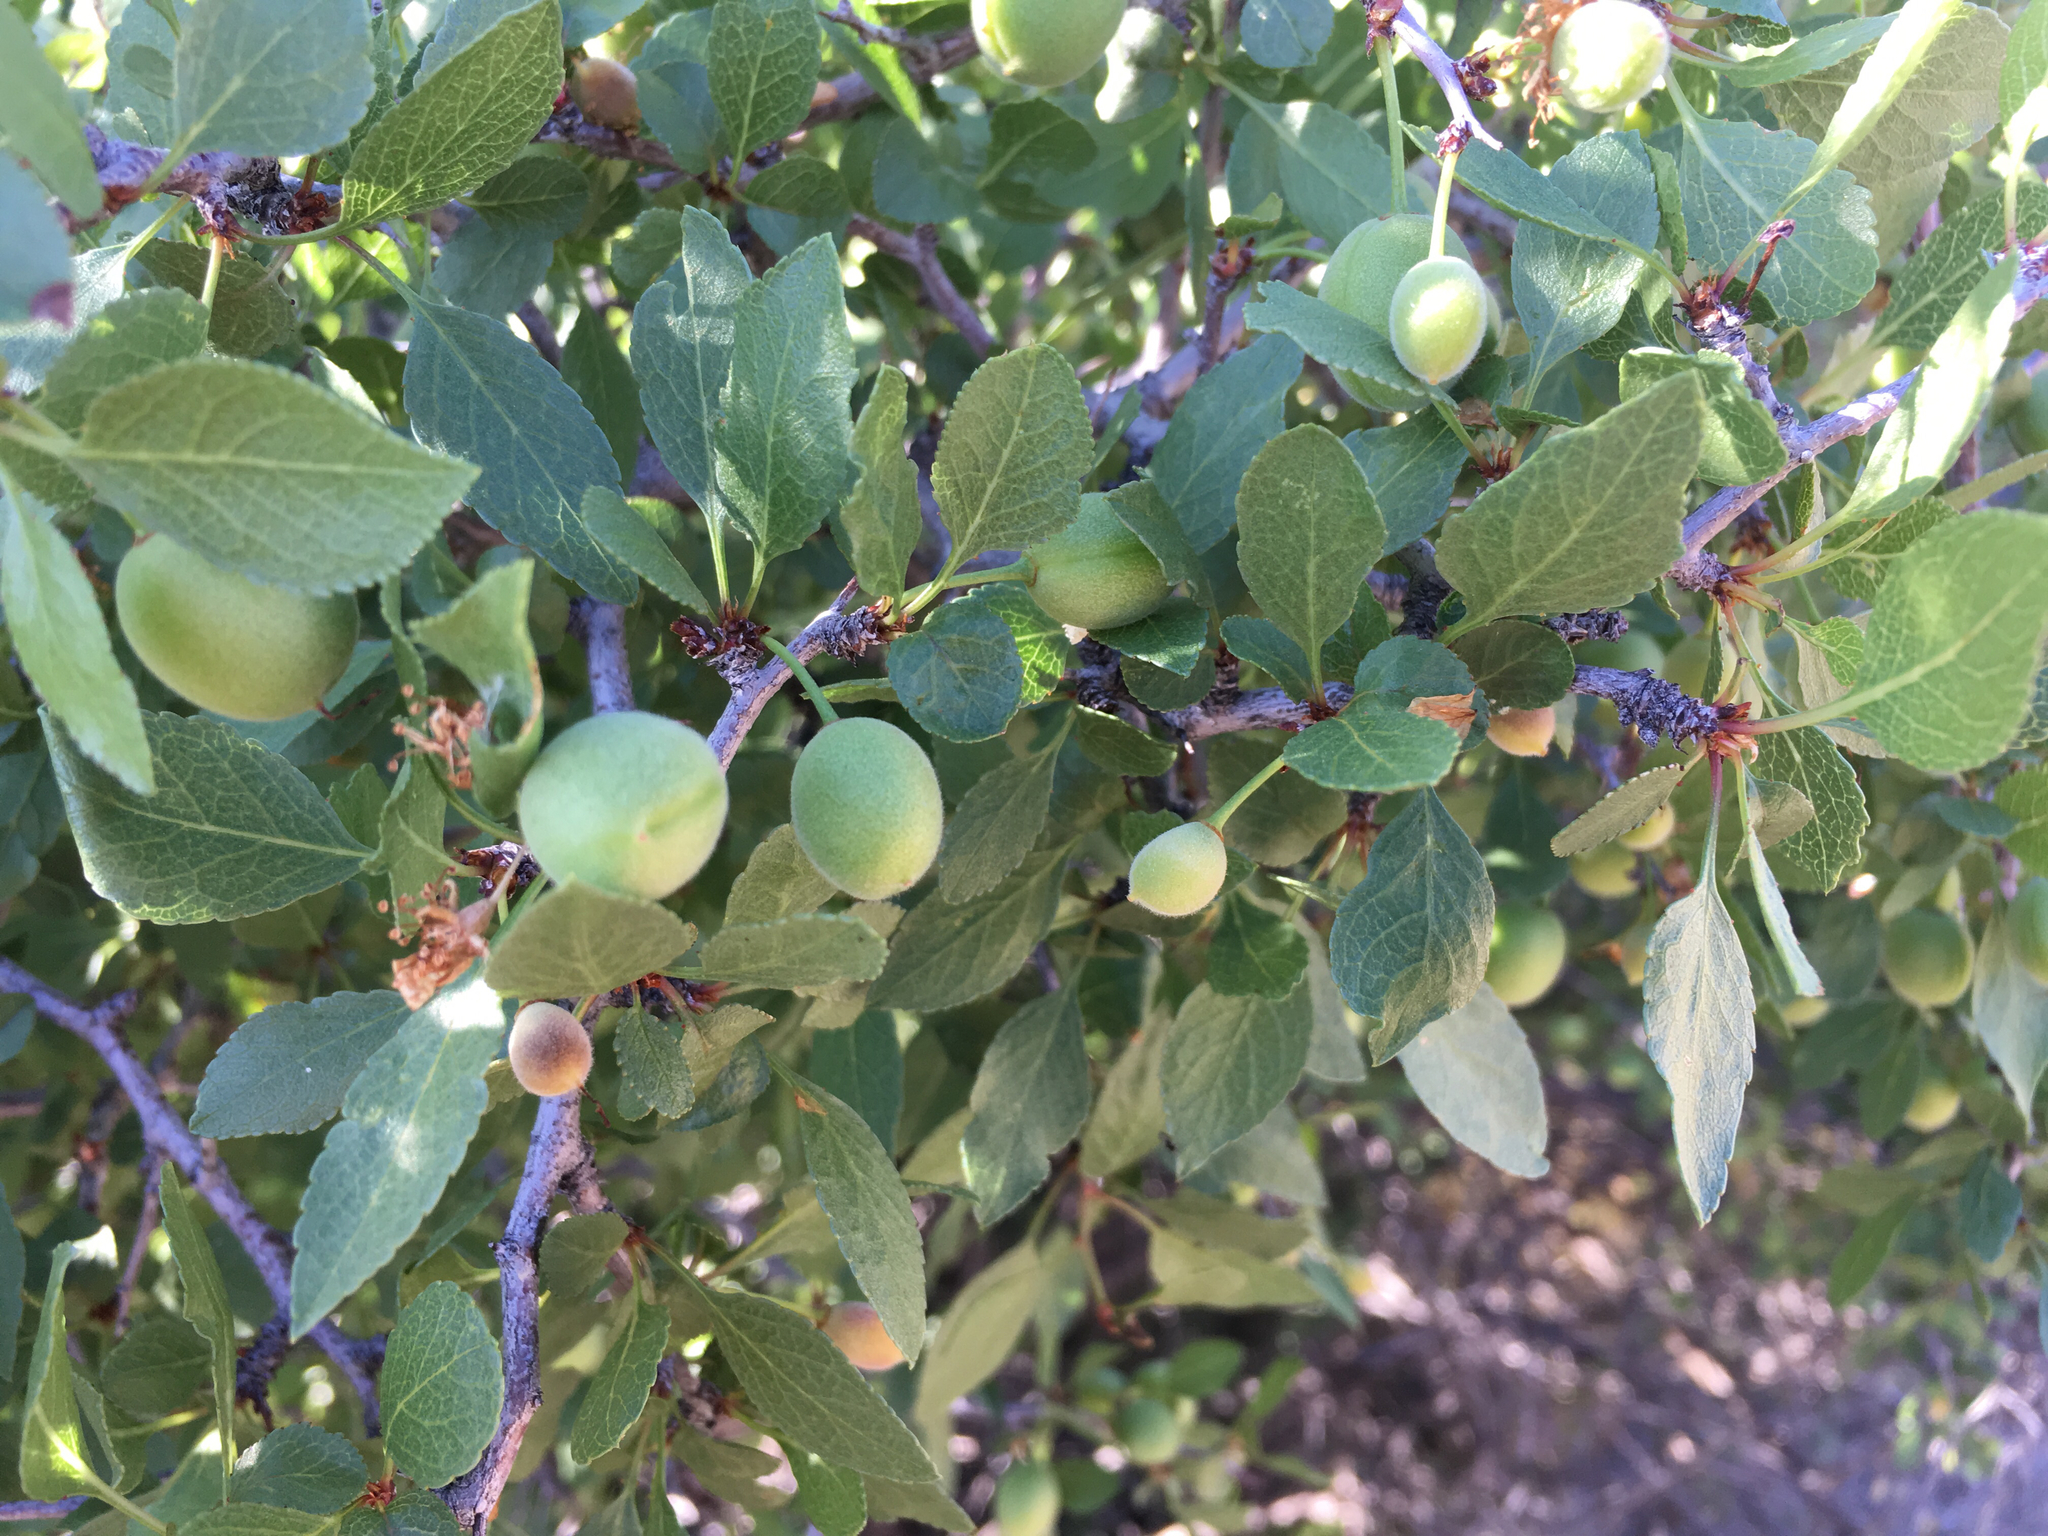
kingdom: Plantae
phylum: Tracheophyta
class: Magnoliopsida
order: Rosales
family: Rosaceae
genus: Prunus
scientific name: Prunus fremontii
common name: Desert apricot
